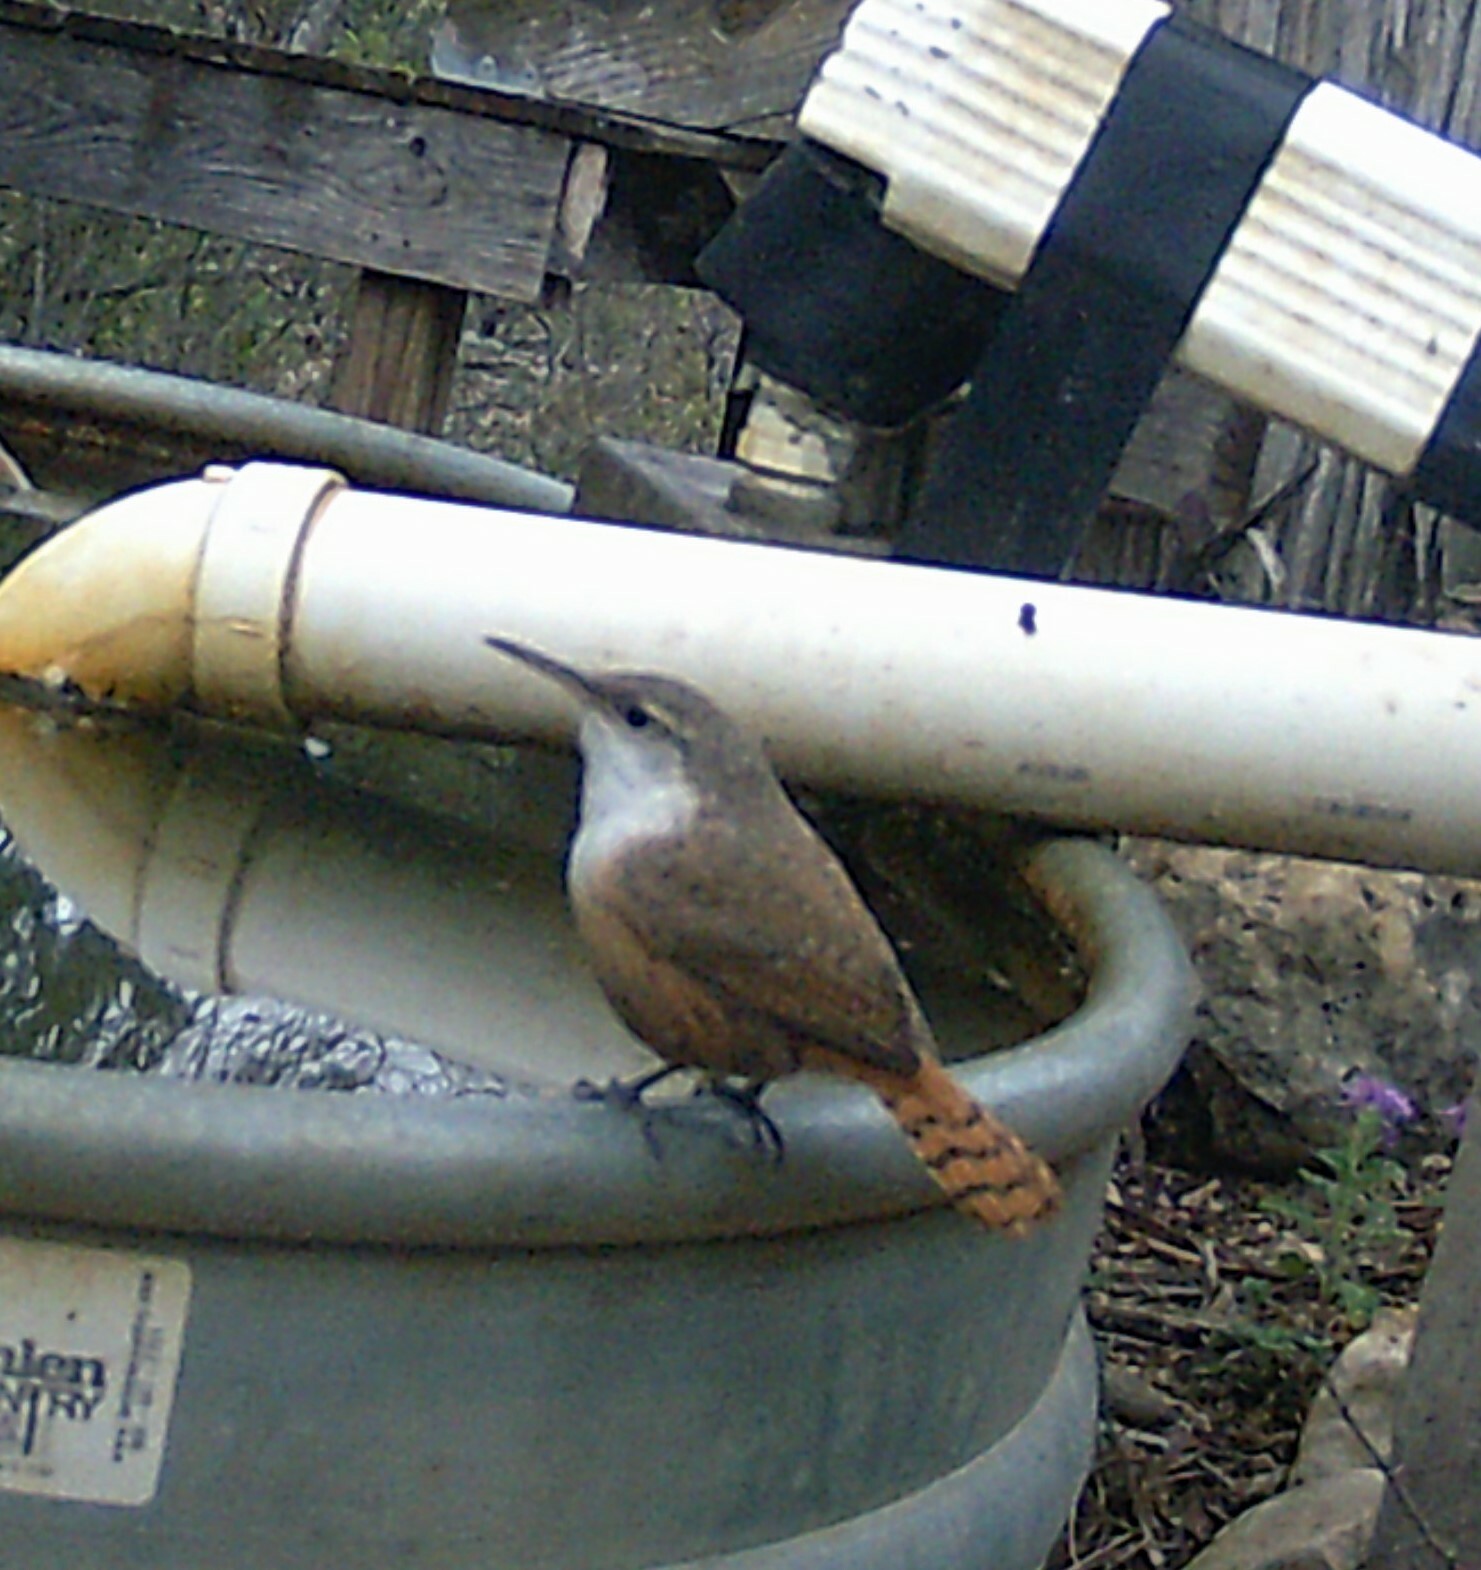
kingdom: Animalia
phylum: Chordata
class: Aves
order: Passeriformes
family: Troglodytidae
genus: Catherpes
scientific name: Catherpes mexicanus
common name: Canyon wren
